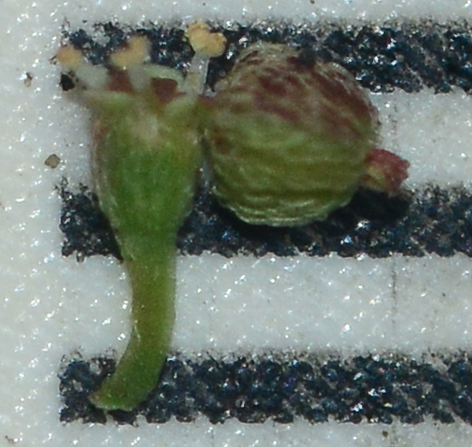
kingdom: Plantae
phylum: Tracheophyta
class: Magnoliopsida
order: Malpighiales
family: Euphorbiaceae
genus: Euphorbia
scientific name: Euphorbia hirta
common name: Pillpod sandmat
